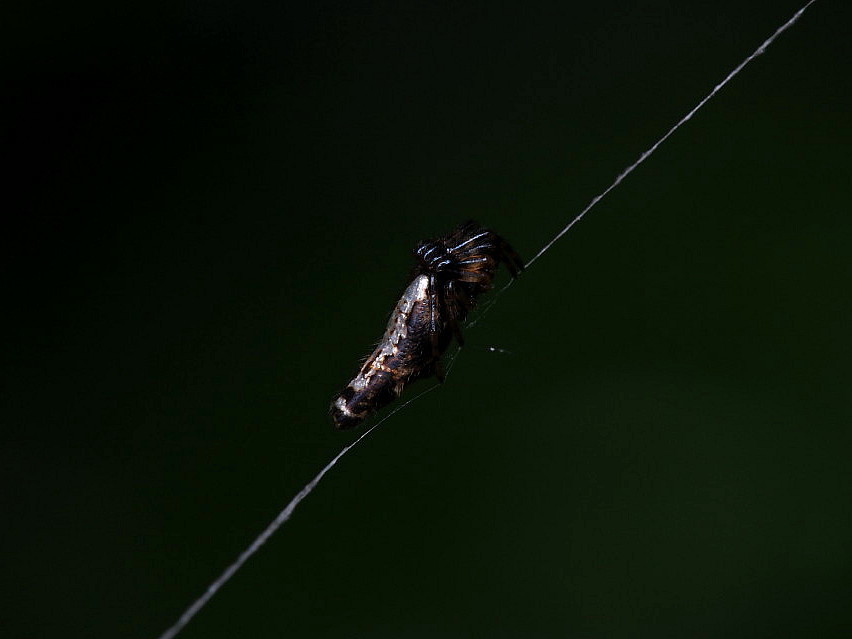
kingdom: Animalia
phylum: Arthropoda
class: Arachnida
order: Araneae
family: Araneidae
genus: Cyclosa
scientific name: Cyclosa trilobata
